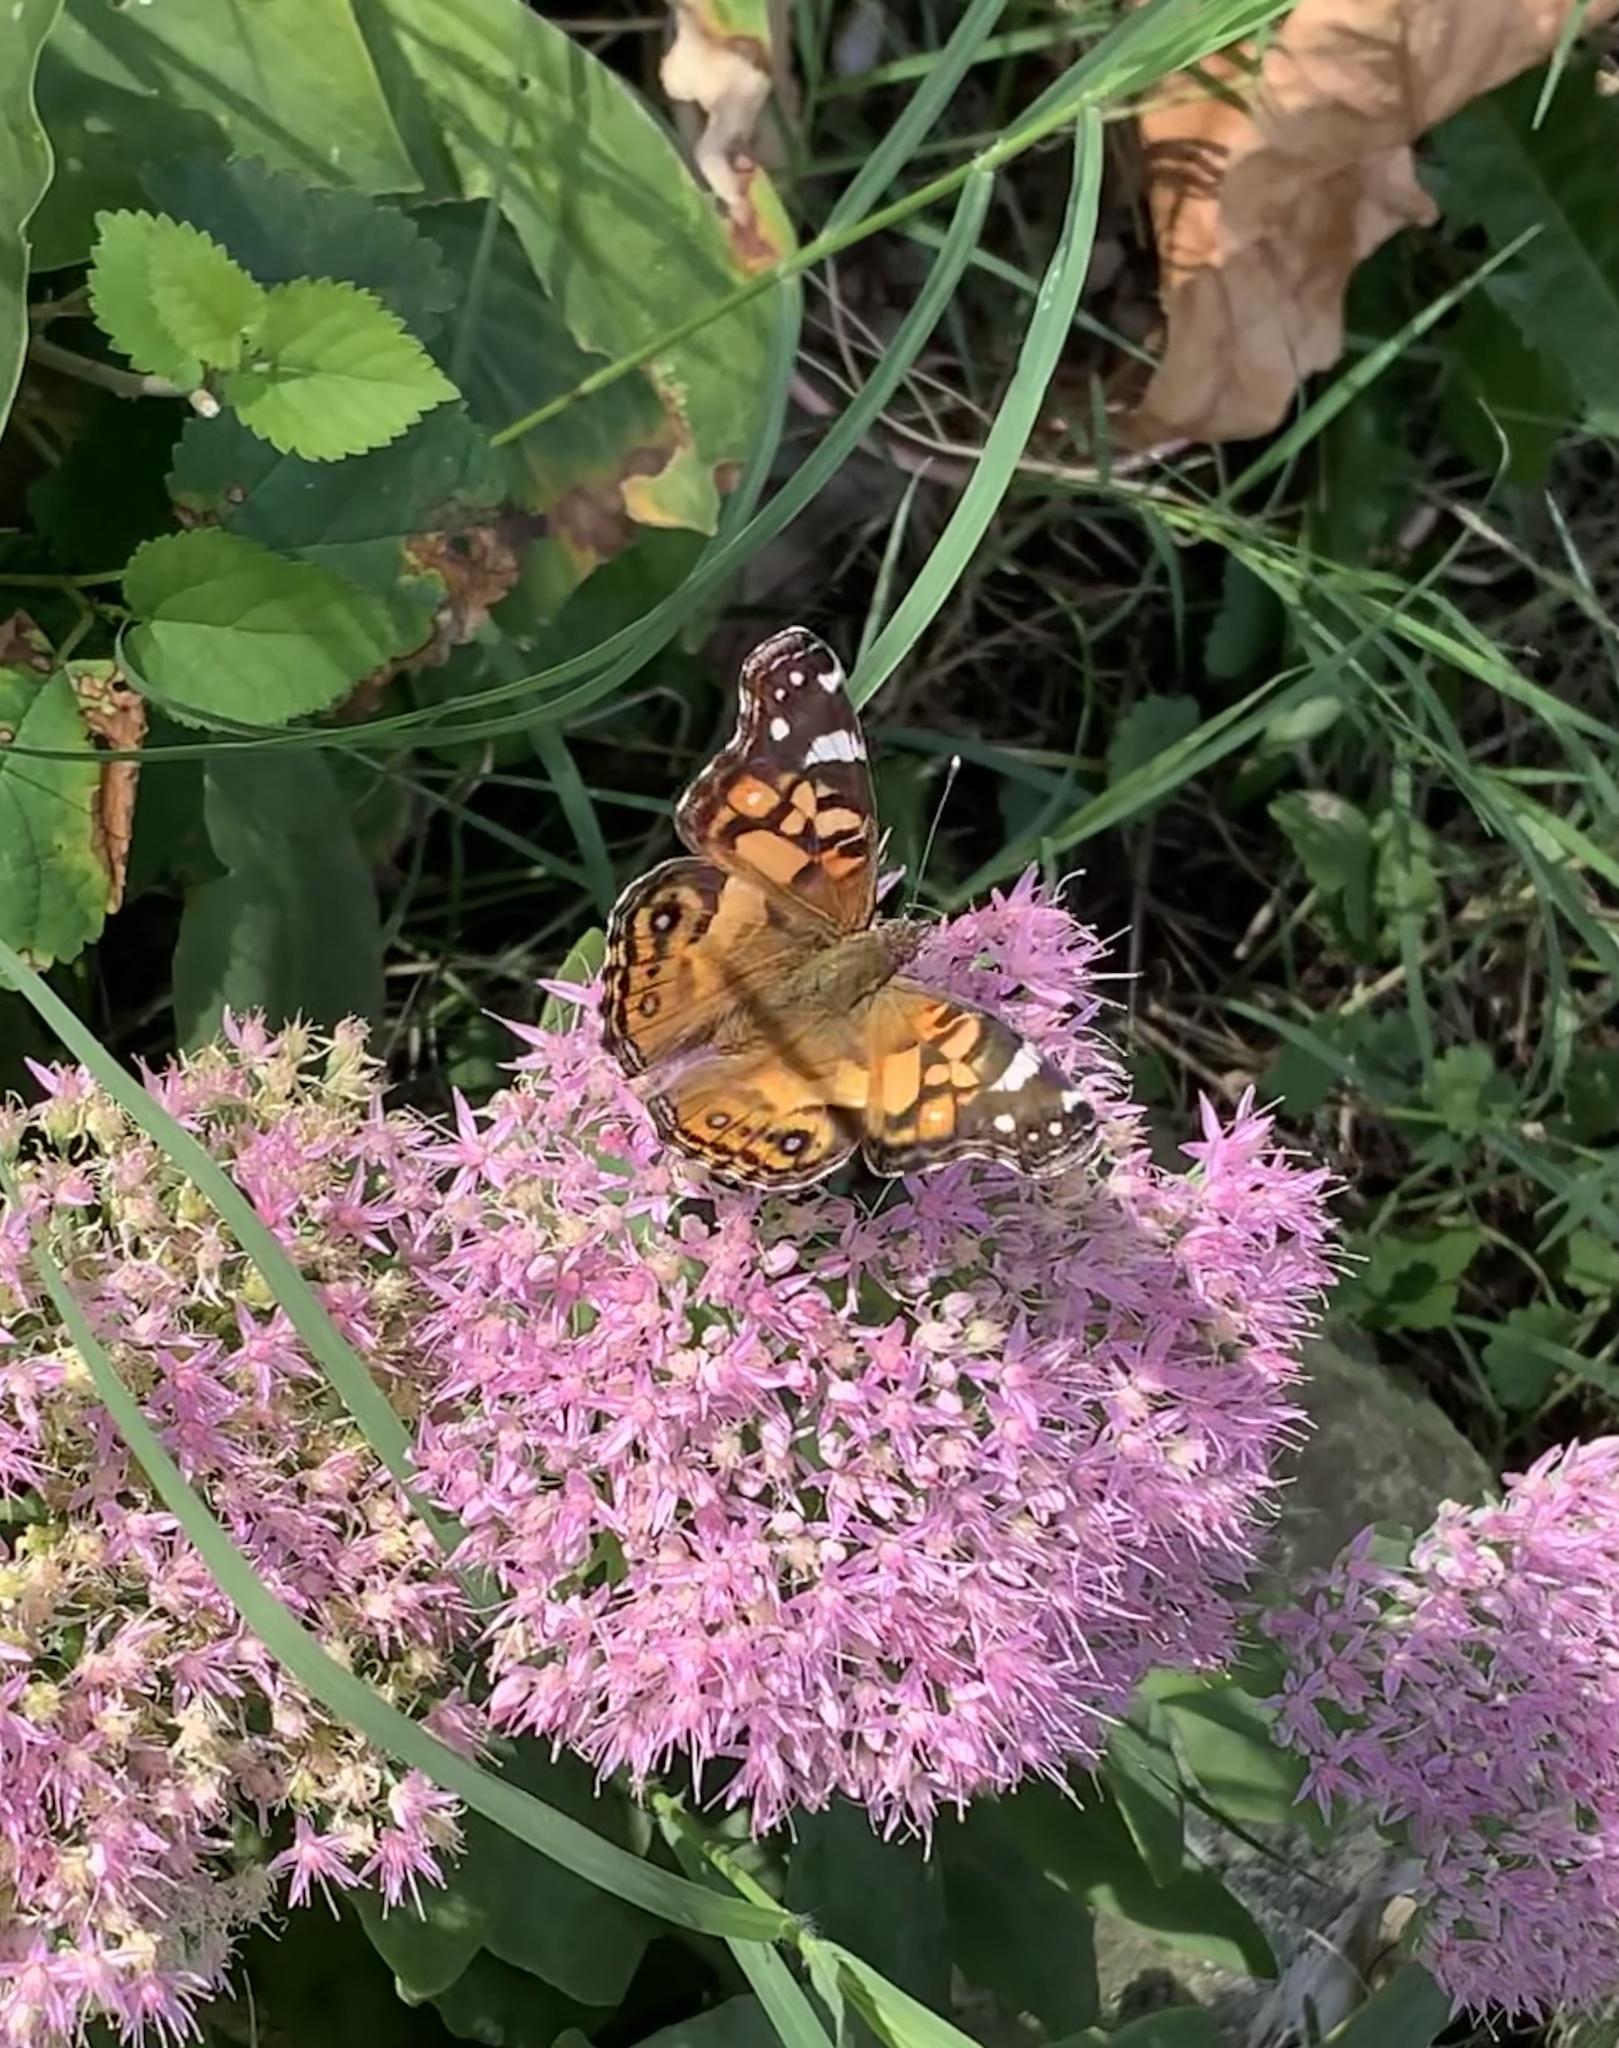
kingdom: Animalia
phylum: Arthropoda
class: Insecta
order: Lepidoptera
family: Nymphalidae
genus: Vanessa
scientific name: Vanessa virginiensis
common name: American lady
